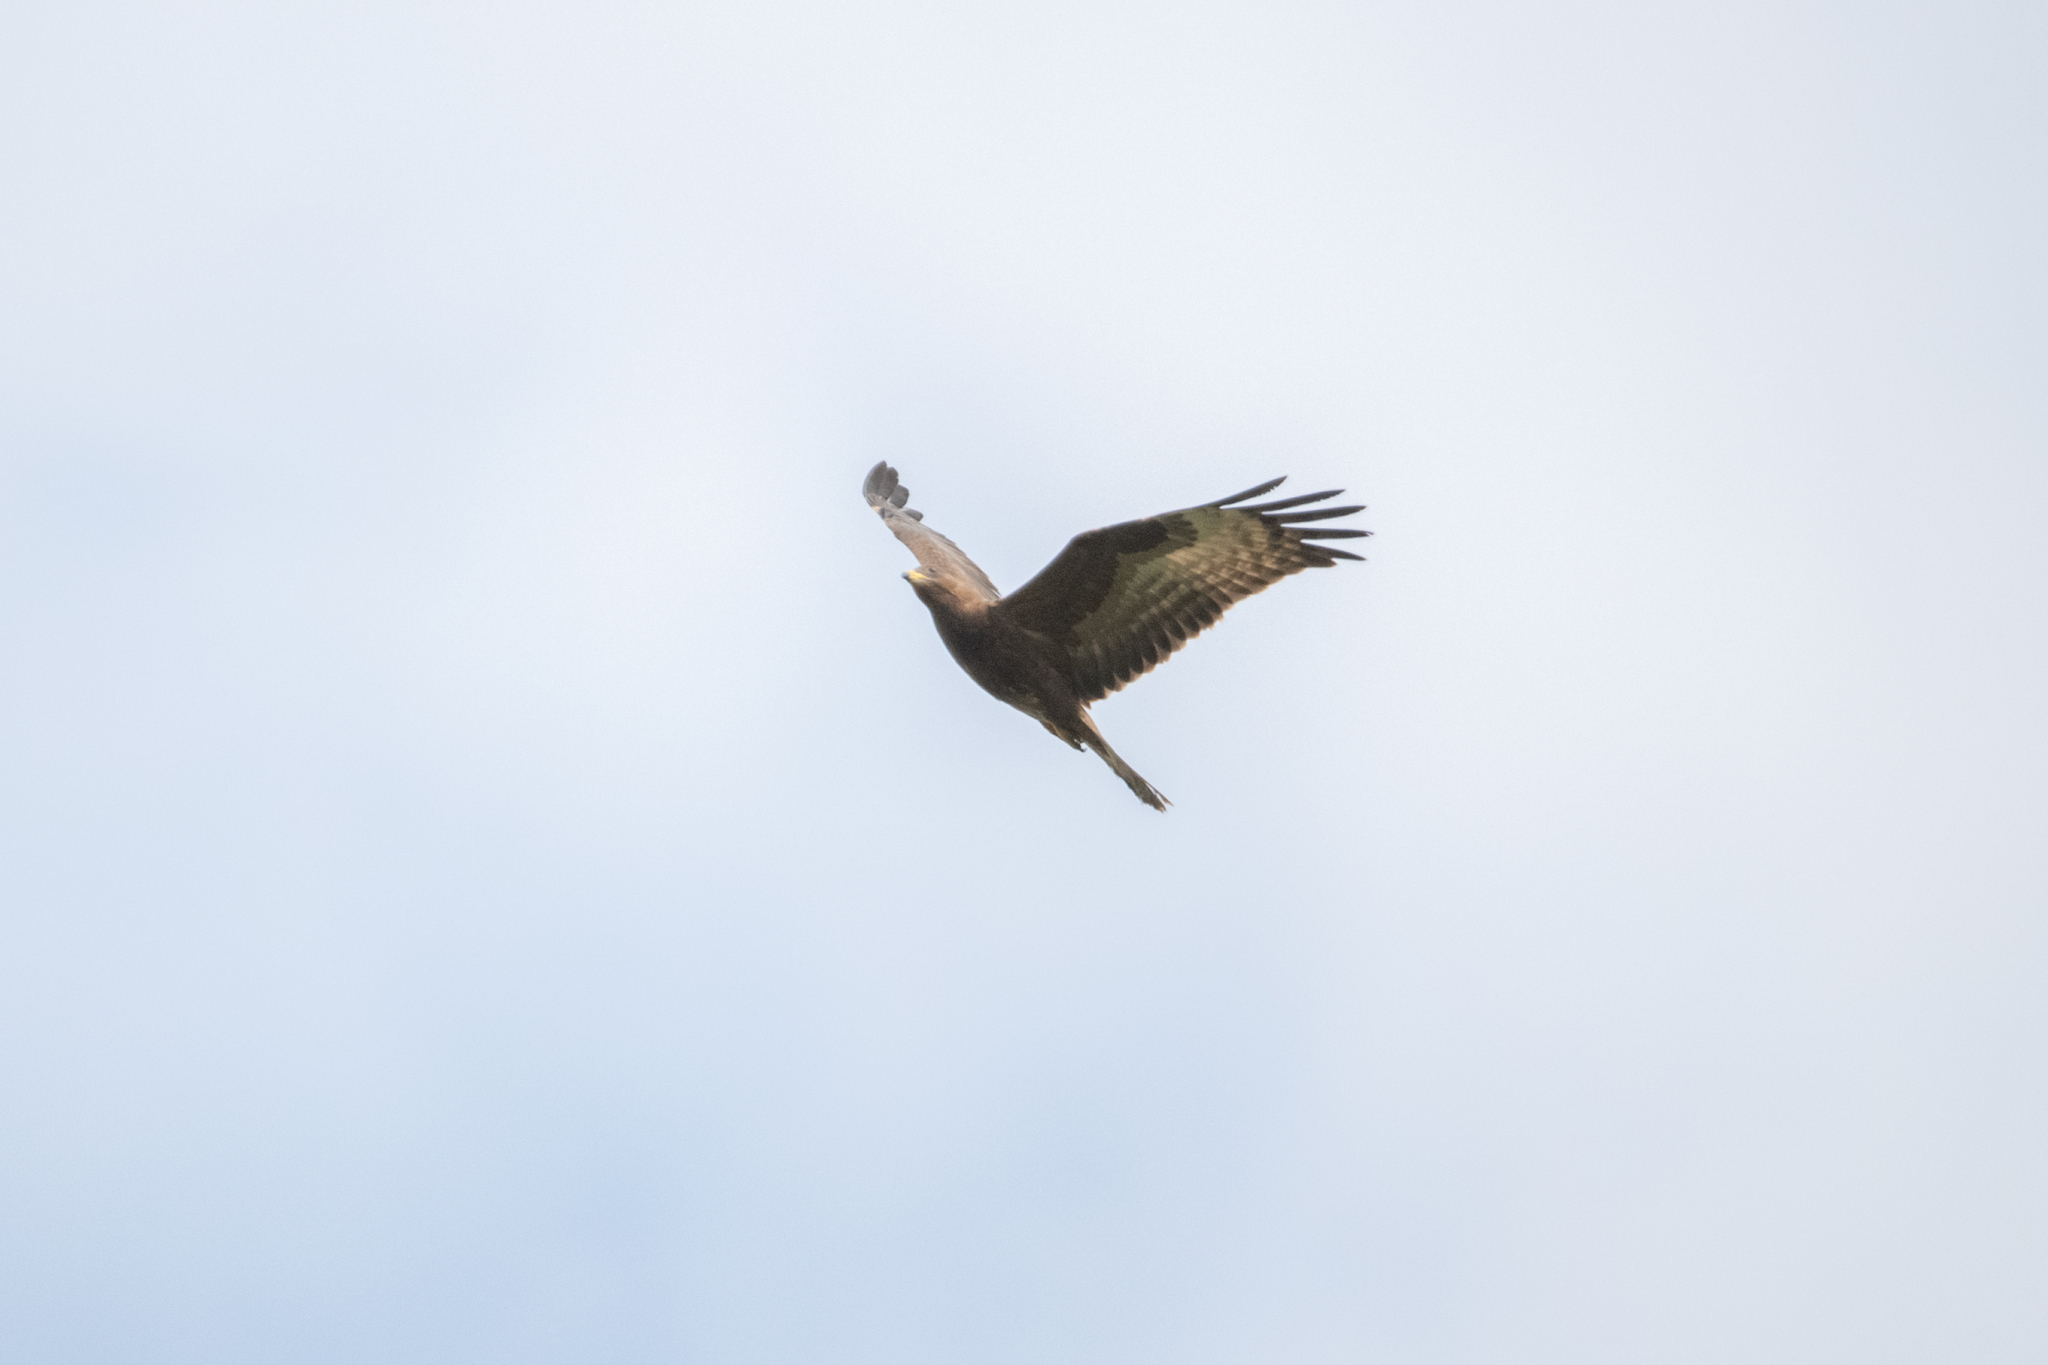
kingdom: Animalia
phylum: Chordata
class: Aves
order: Accipitriformes
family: Accipitridae
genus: Pernis
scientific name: Pernis apivorus
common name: European honey buzzard
